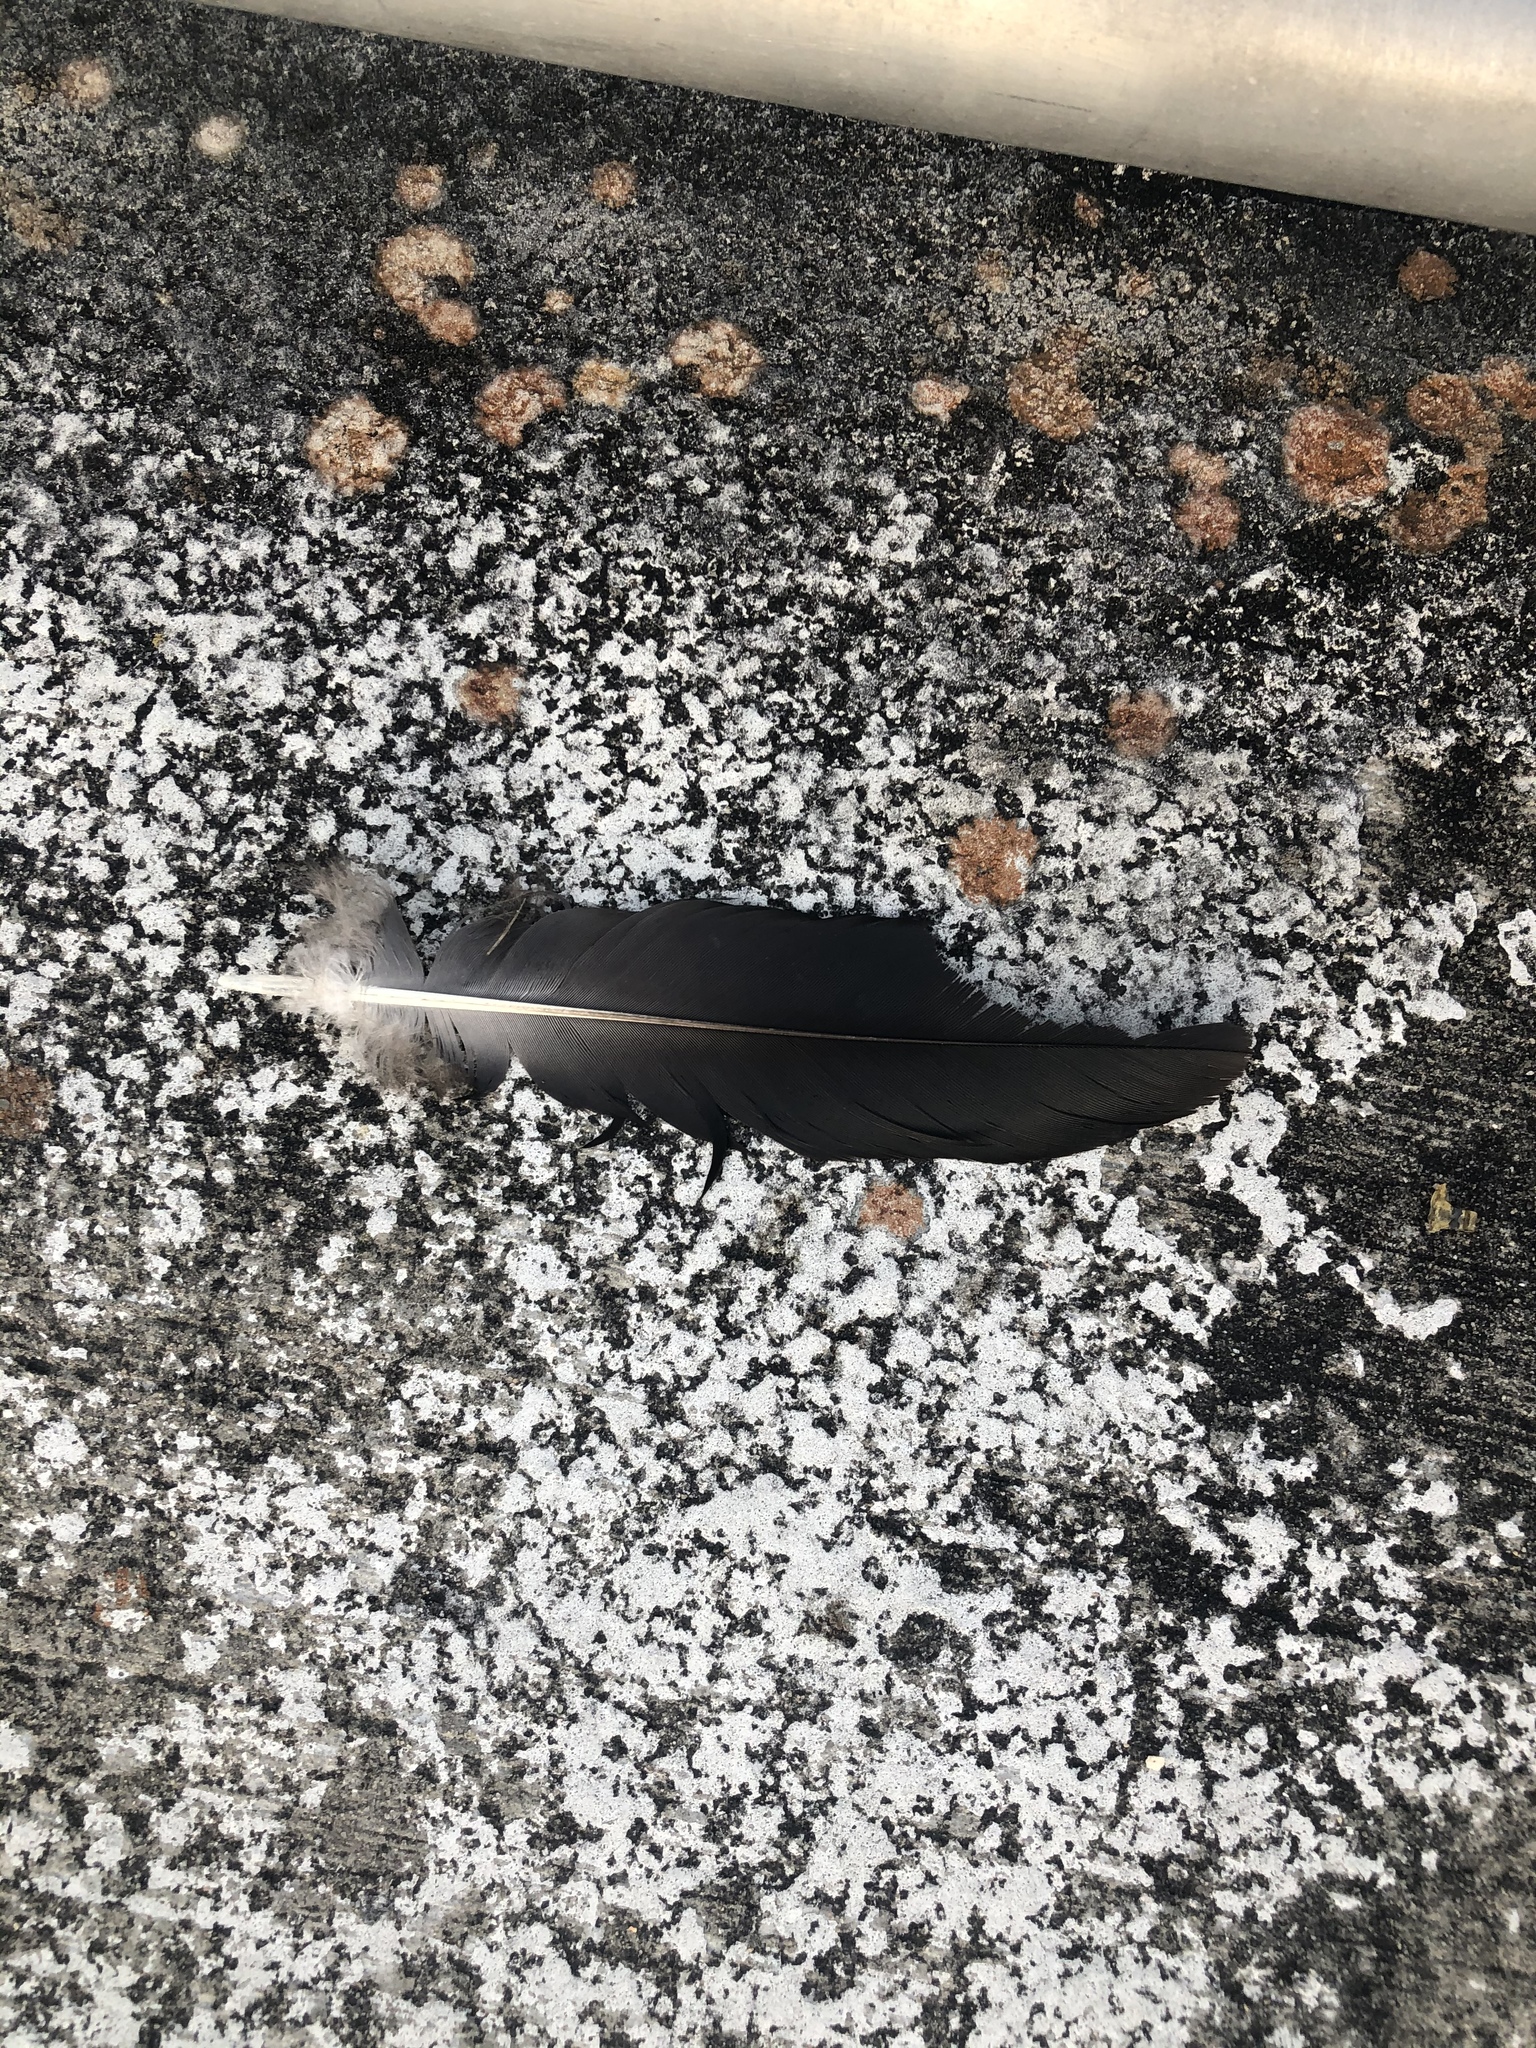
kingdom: Animalia
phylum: Chordata
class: Aves
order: Accipitriformes
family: Cathartidae
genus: Coragyps
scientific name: Coragyps atratus
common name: Black vulture
